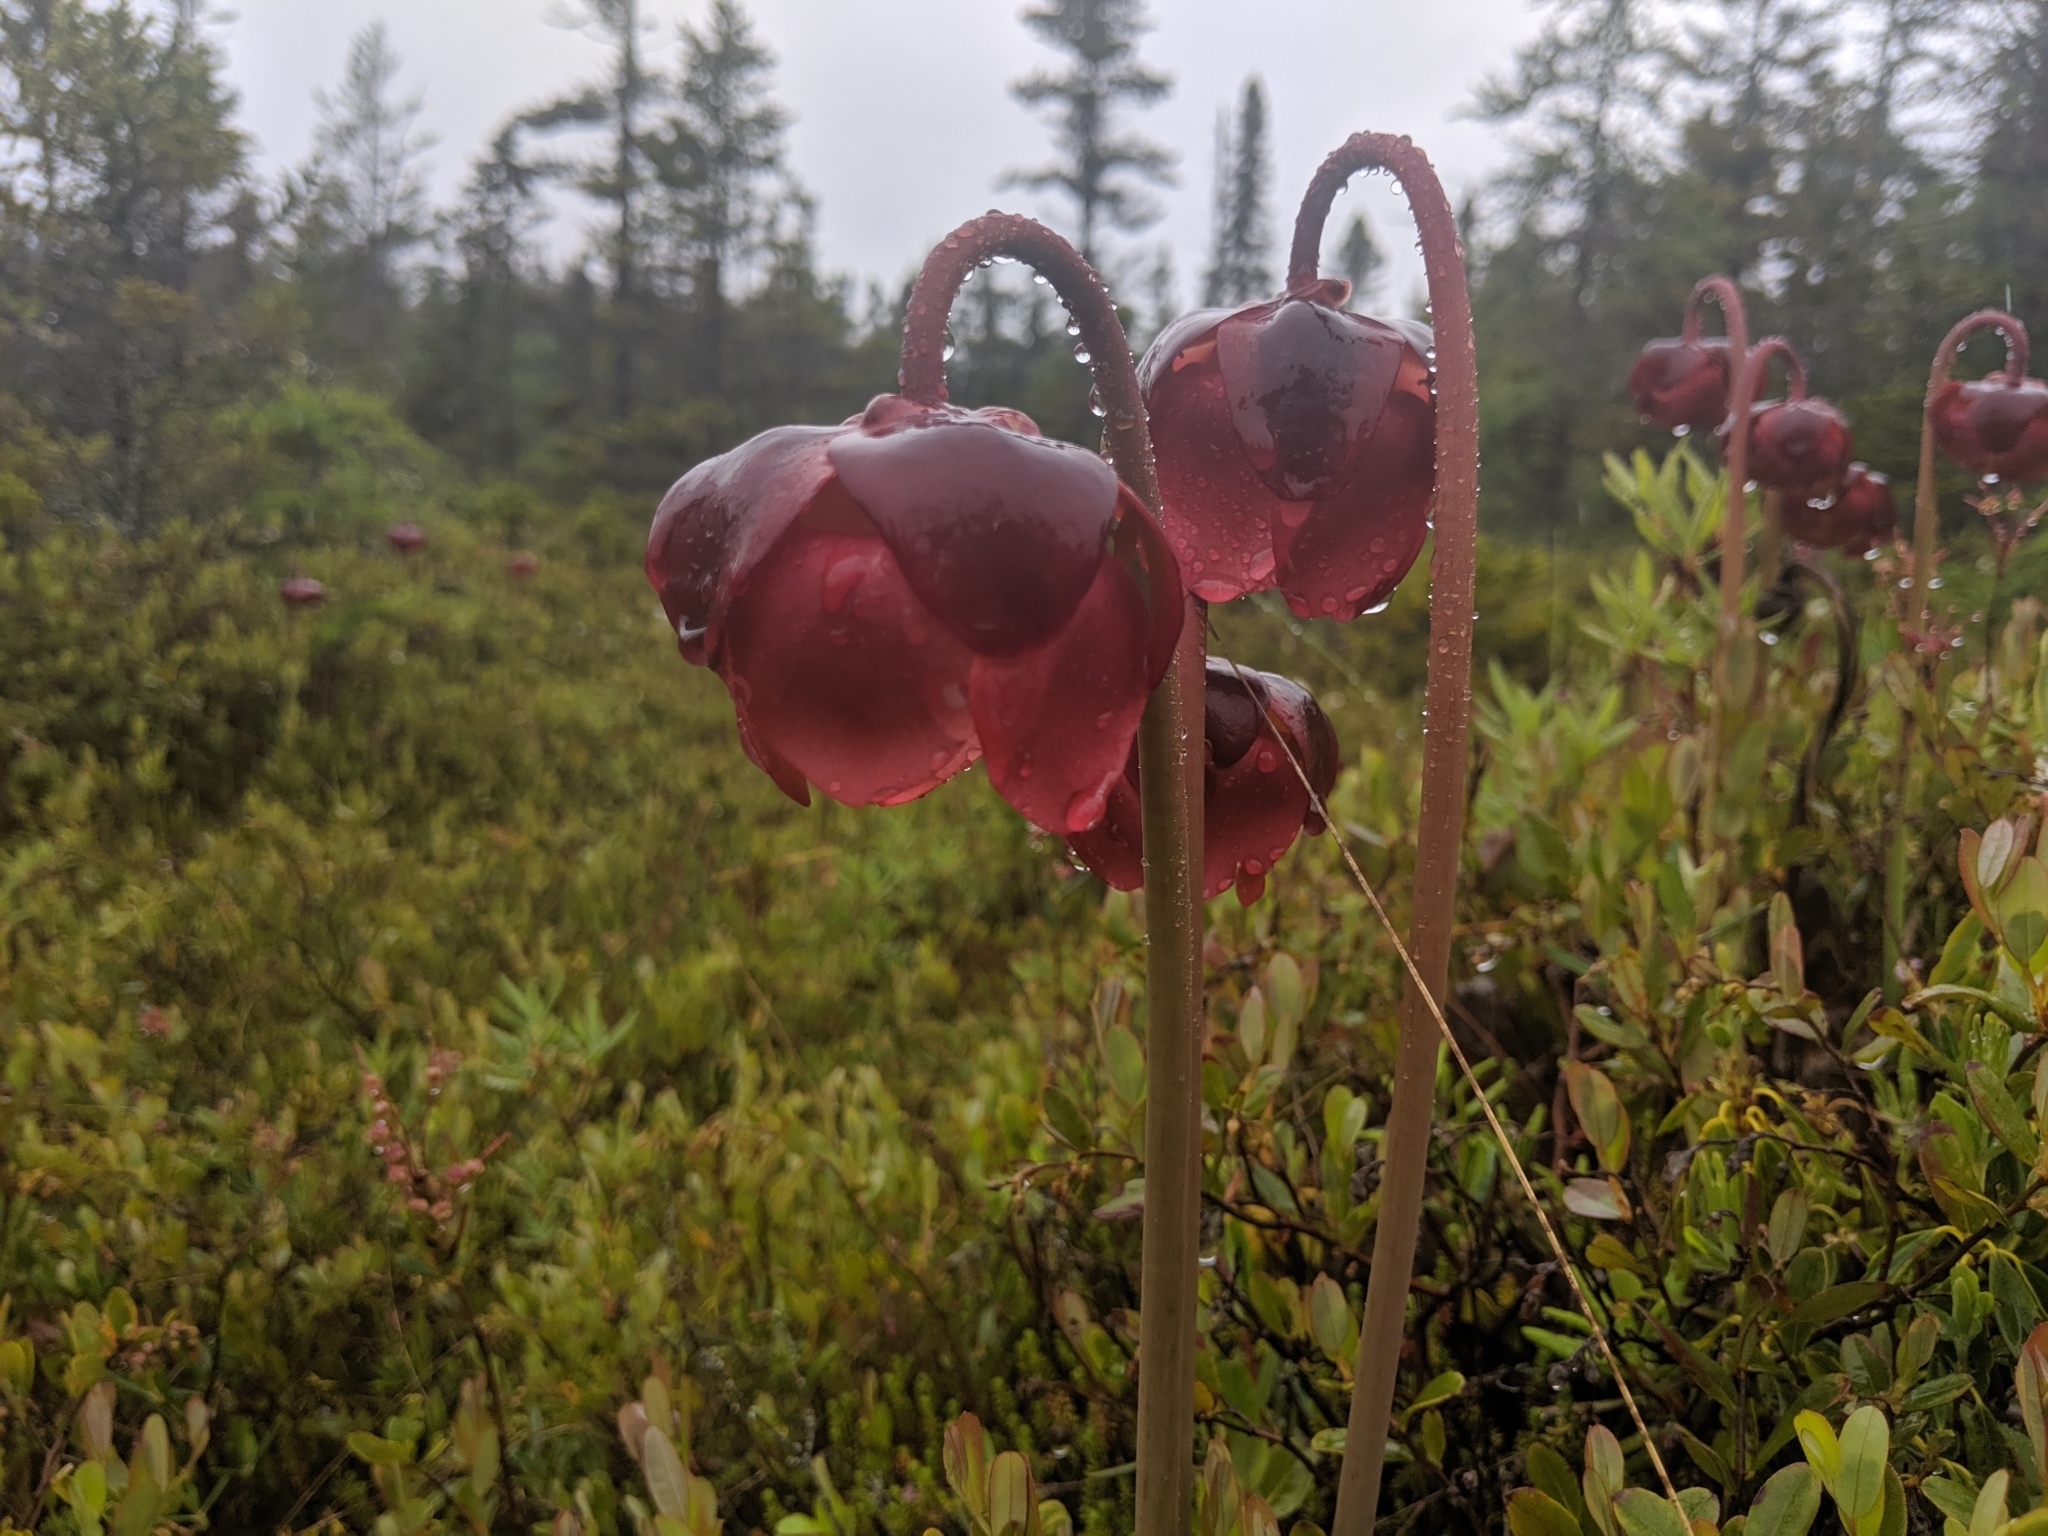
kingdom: Plantae
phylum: Tracheophyta
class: Magnoliopsida
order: Ericales
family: Sarraceniaceae
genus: Sarracenia
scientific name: Sarracenia purpurea
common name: Pitcherplant
